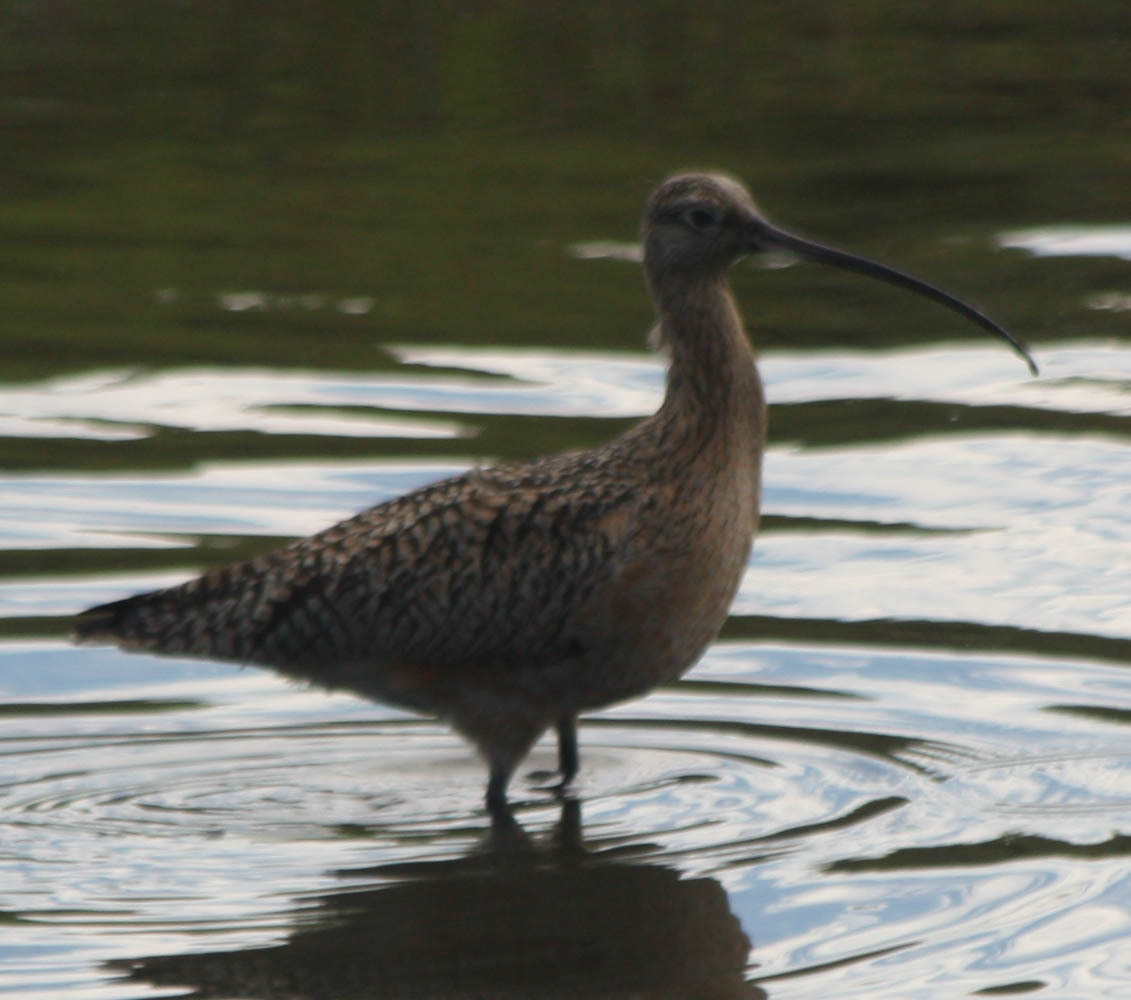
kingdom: Animalia
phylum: Chordata
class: Aves
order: Charadriiformes
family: Scolopacidae
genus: Numenius
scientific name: Numenius americanus
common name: Long-billed curlew
